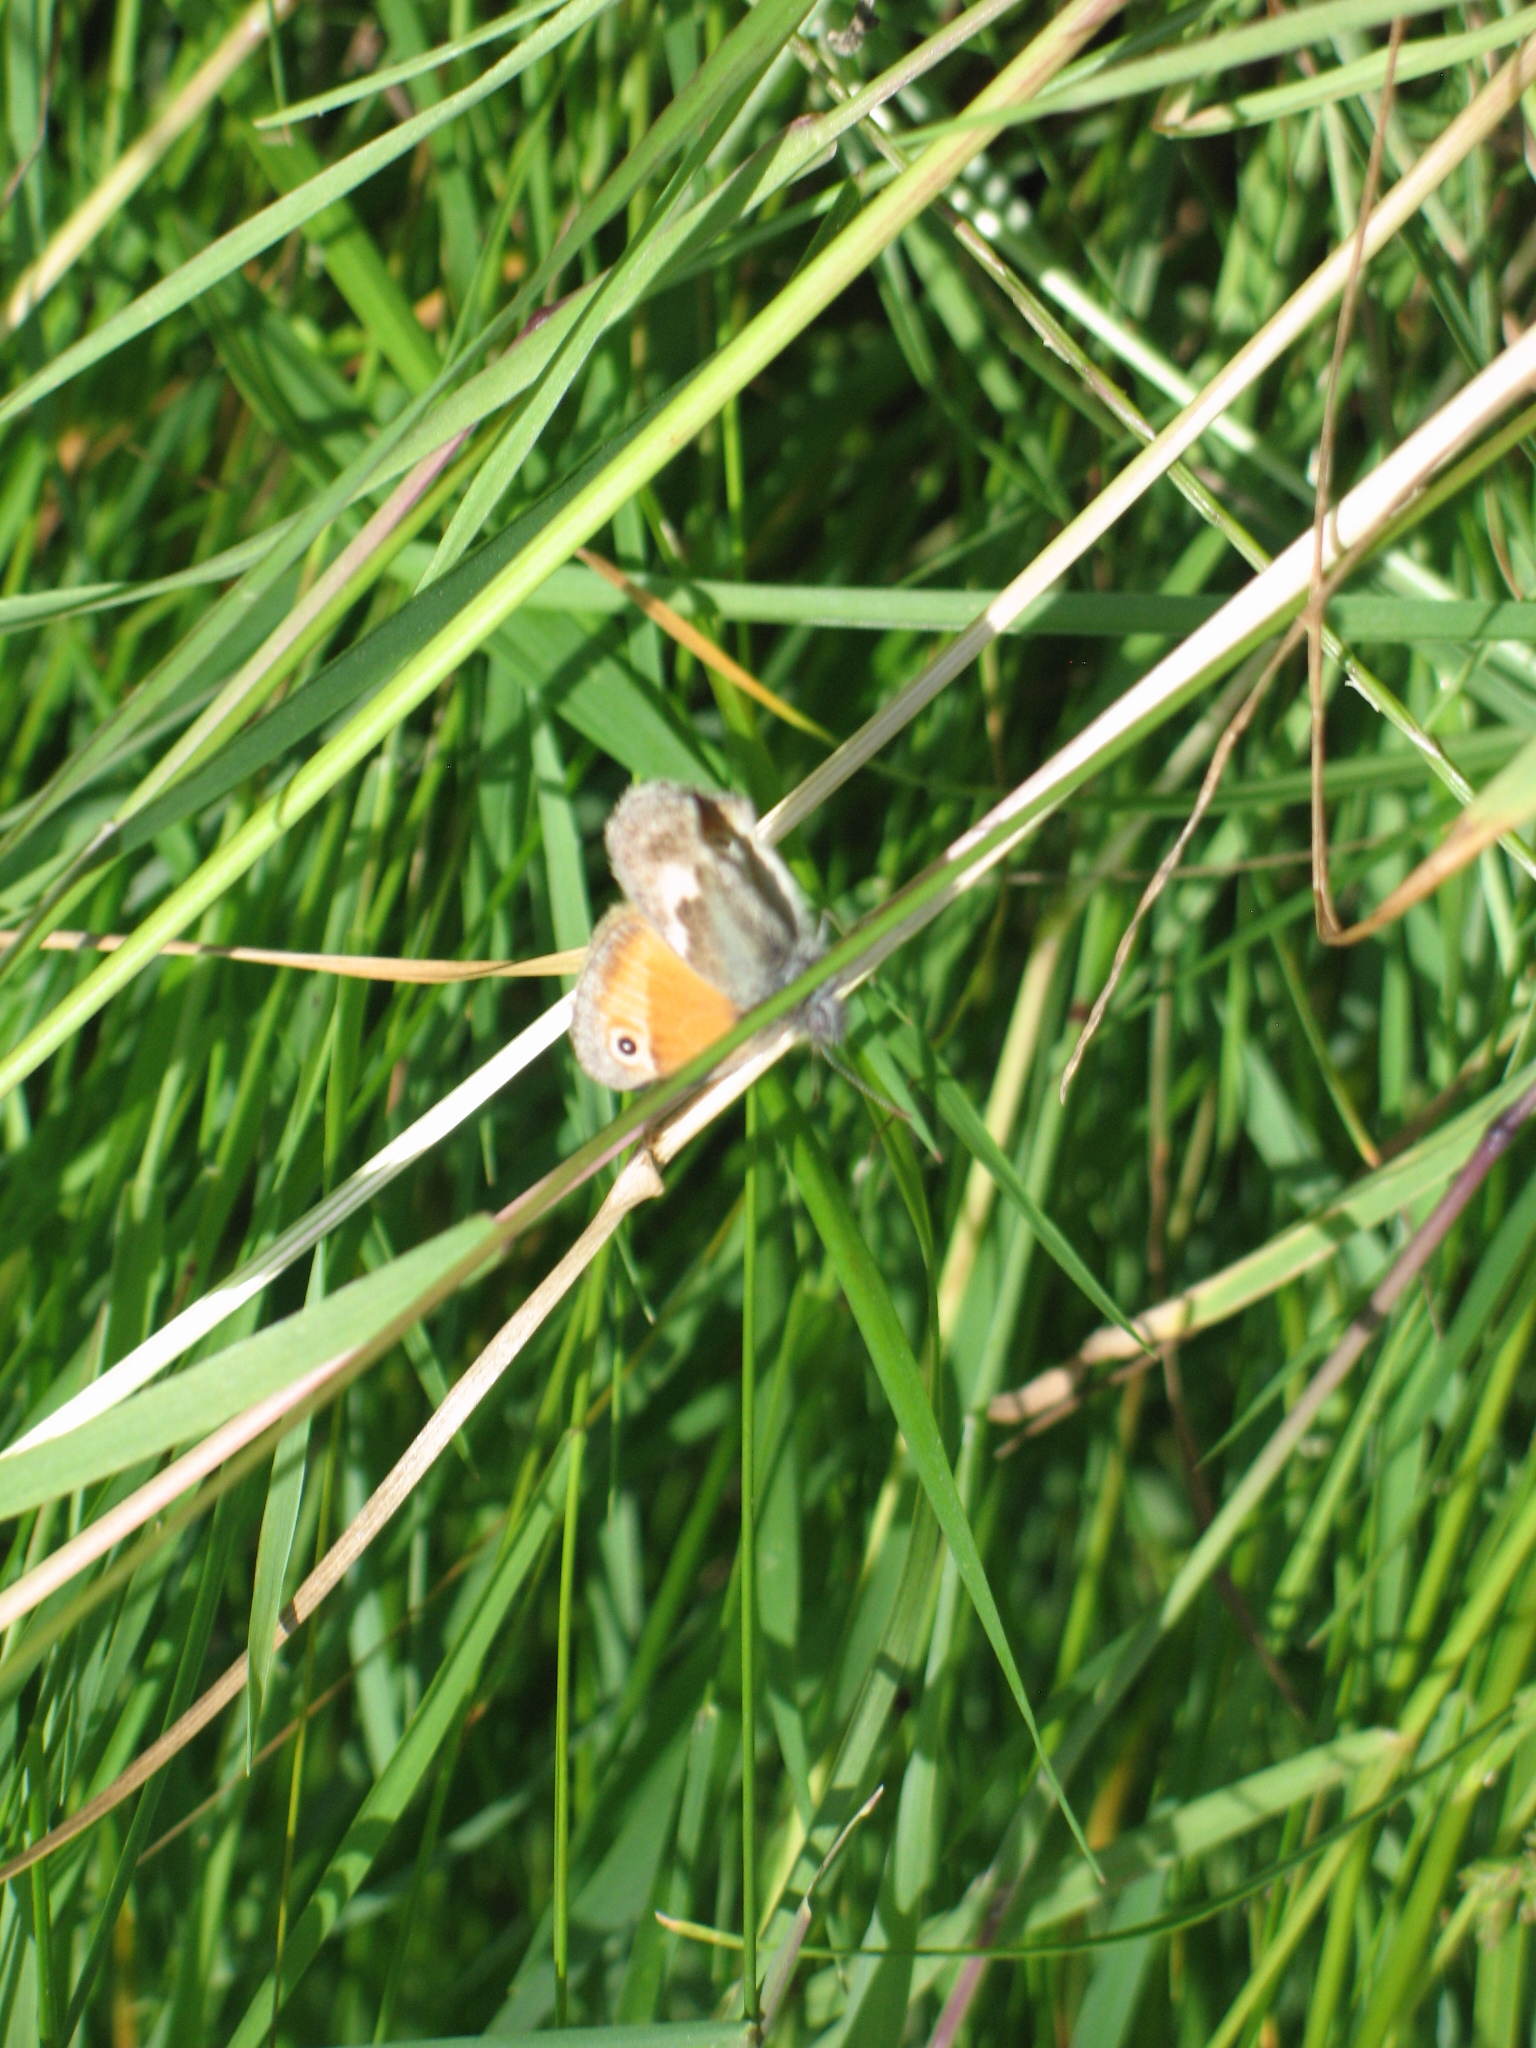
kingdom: Animalia
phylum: Arthropoda
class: Insecta
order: Lepidoptera
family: Nymphalidae
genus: Coenonympha
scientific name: Coenonympha pamphilus
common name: Small heath
